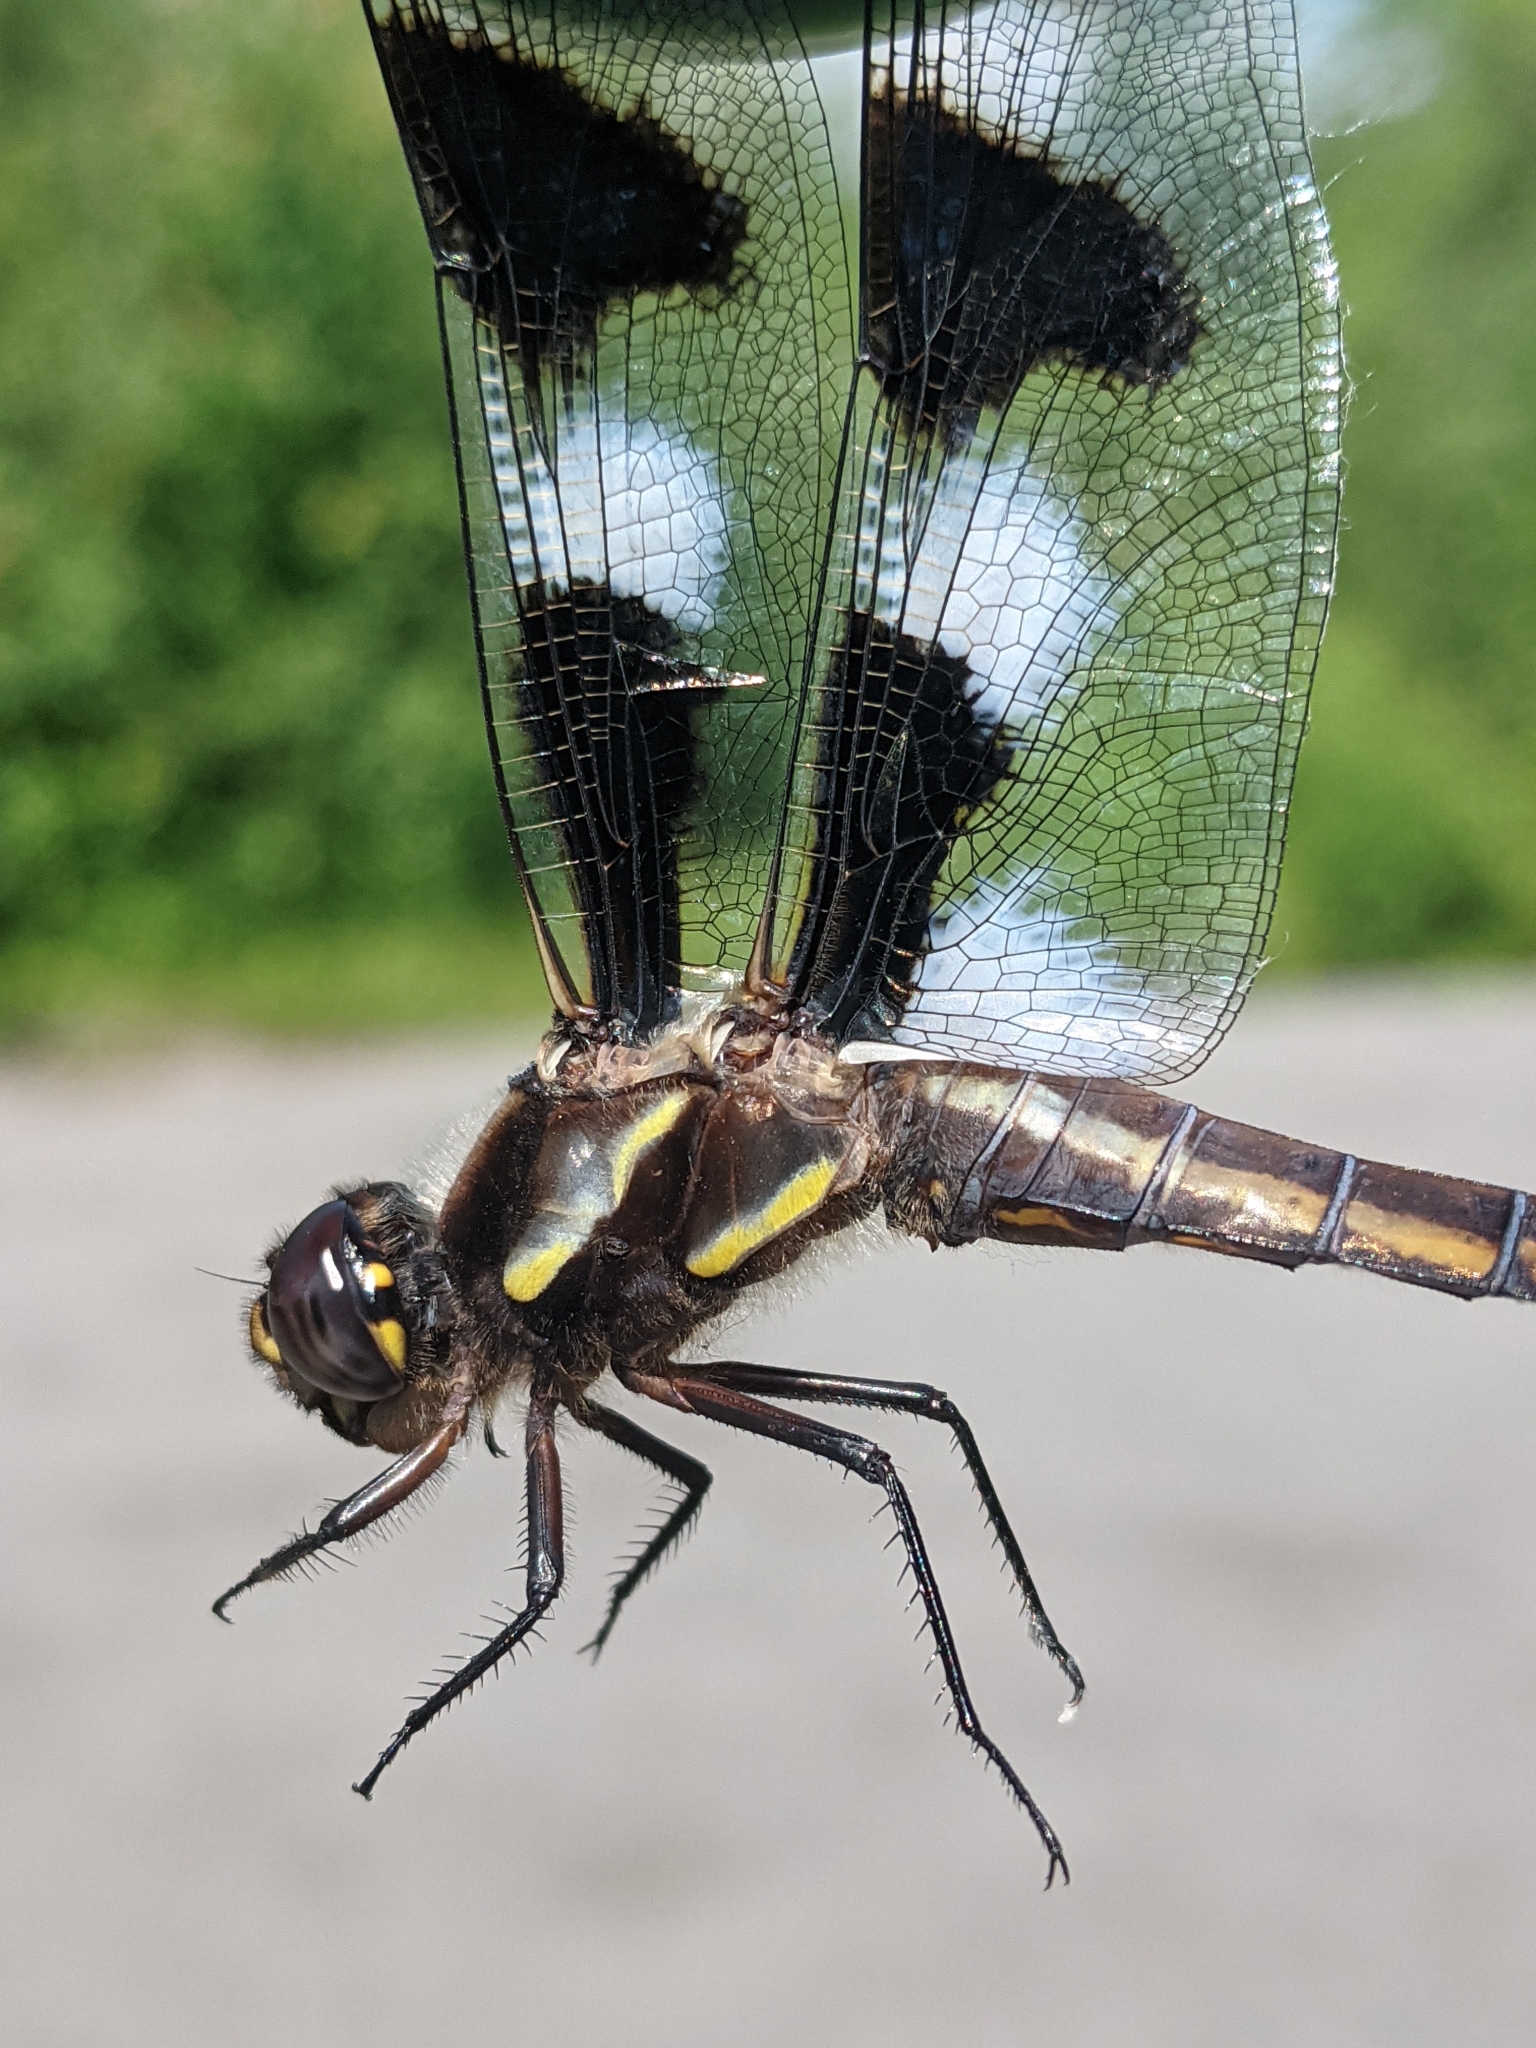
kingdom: Animalia
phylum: Arthropoda
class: Insecta
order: Odonata
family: Libellulidae
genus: Libellula
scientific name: Libellula pulchella
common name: Twelve-spotted skimmer
